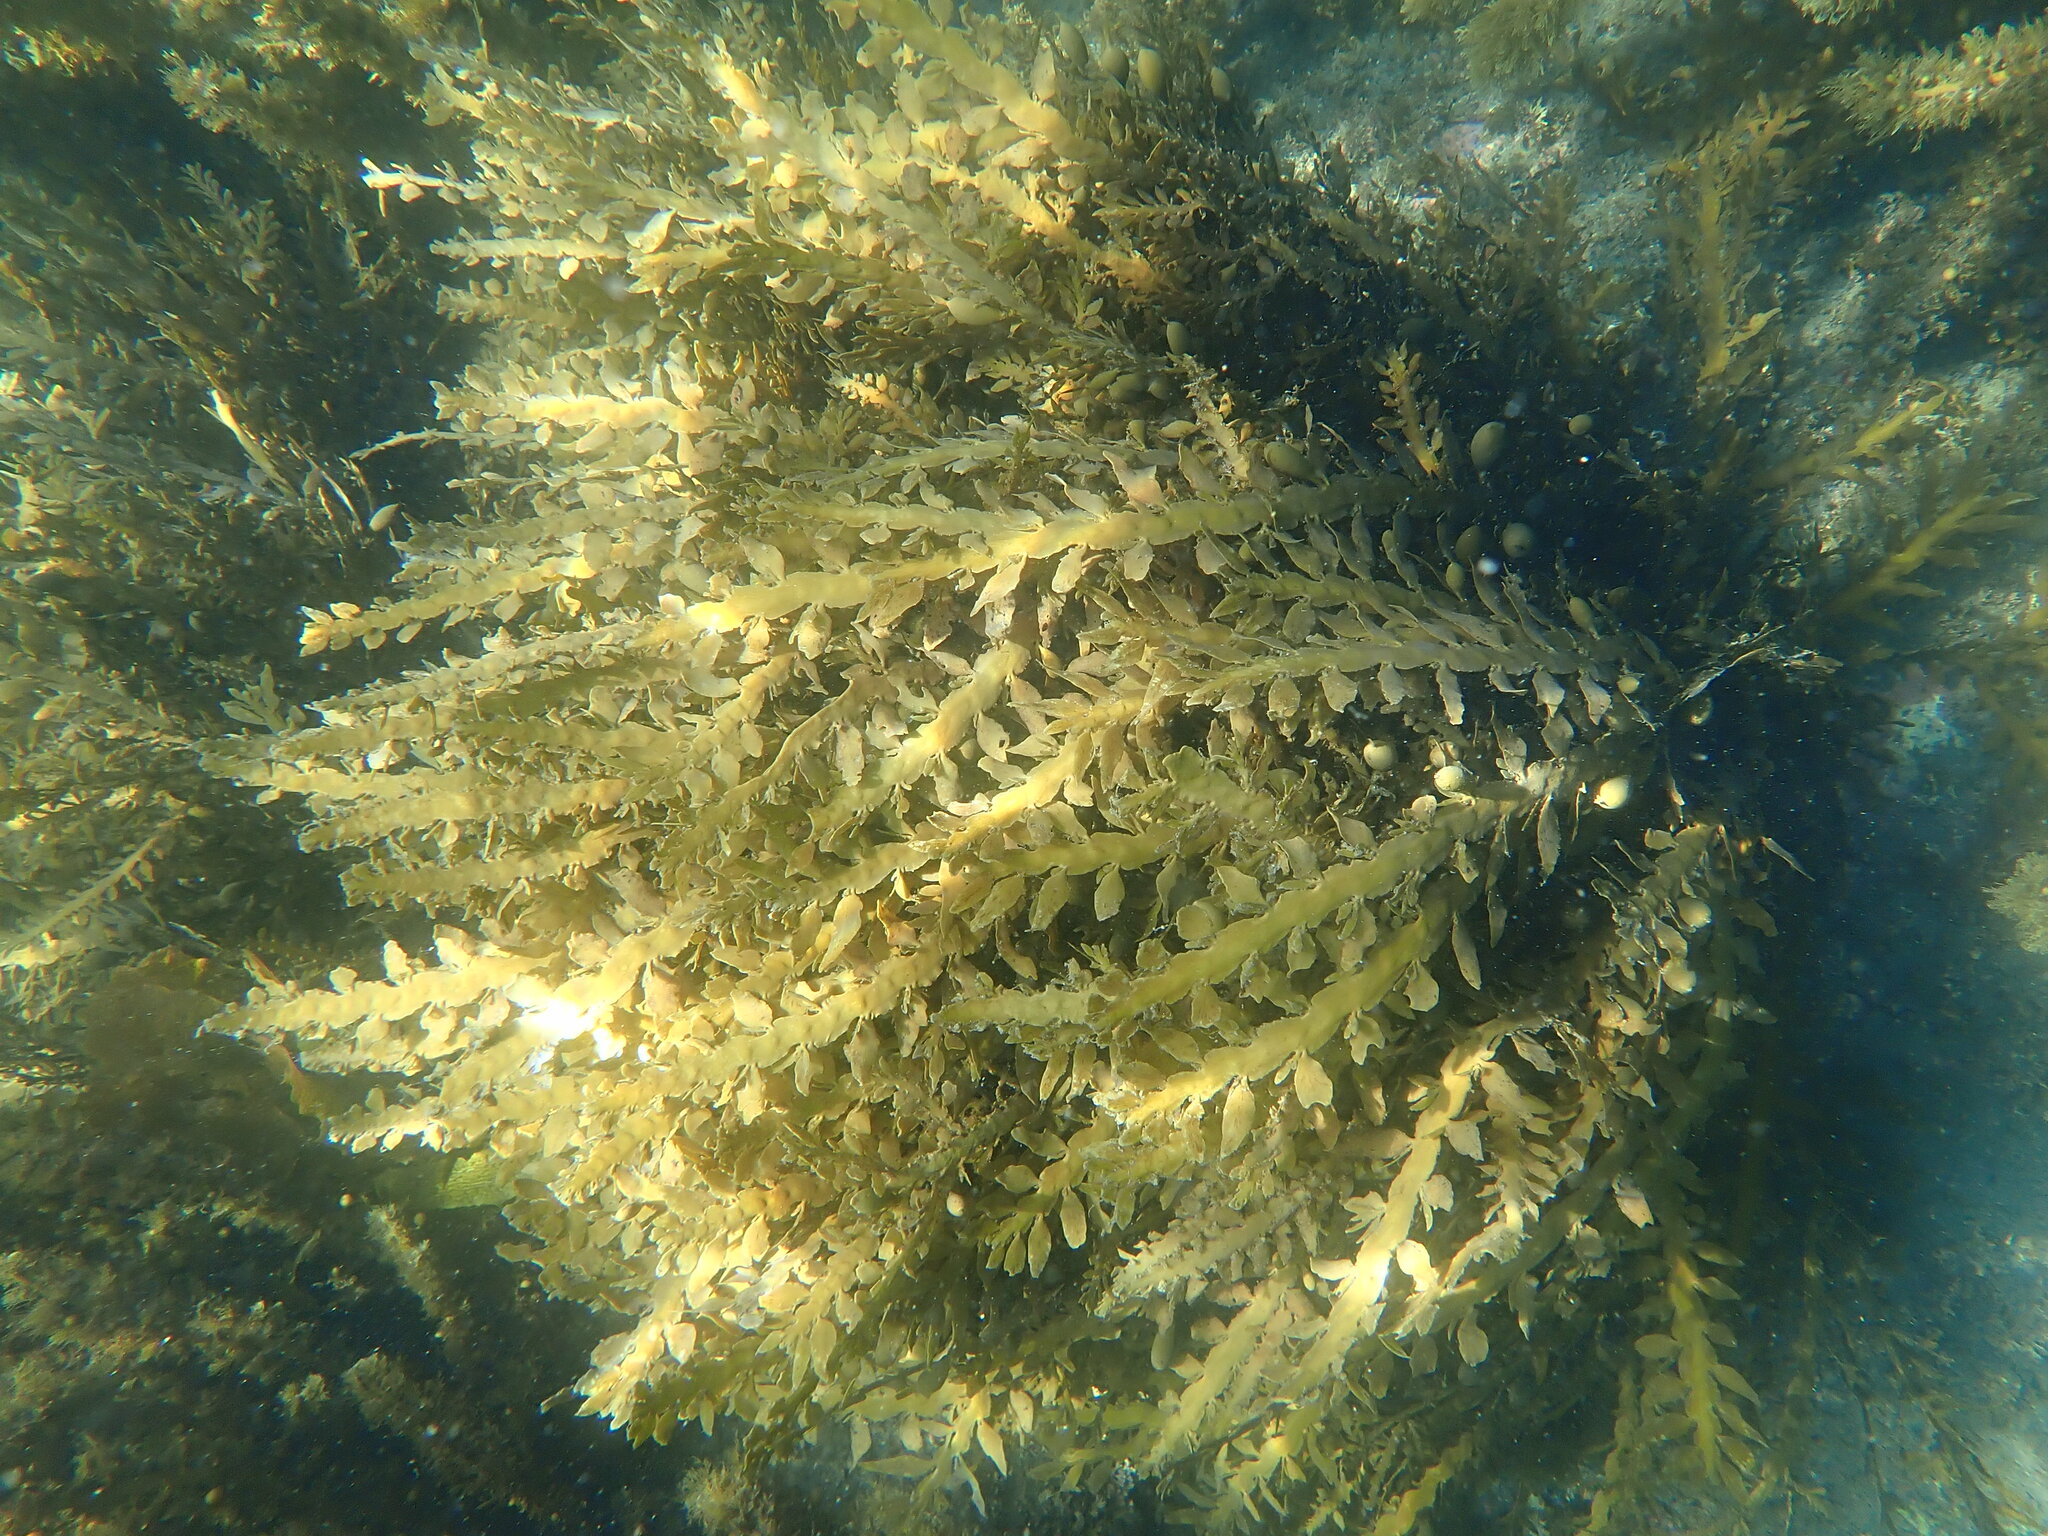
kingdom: Chromista
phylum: Ochrophyta
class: Phaeophyceae
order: Fucales
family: Sargassaceae
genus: Carpophyllum
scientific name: Carpophyllum maschalocarpum
